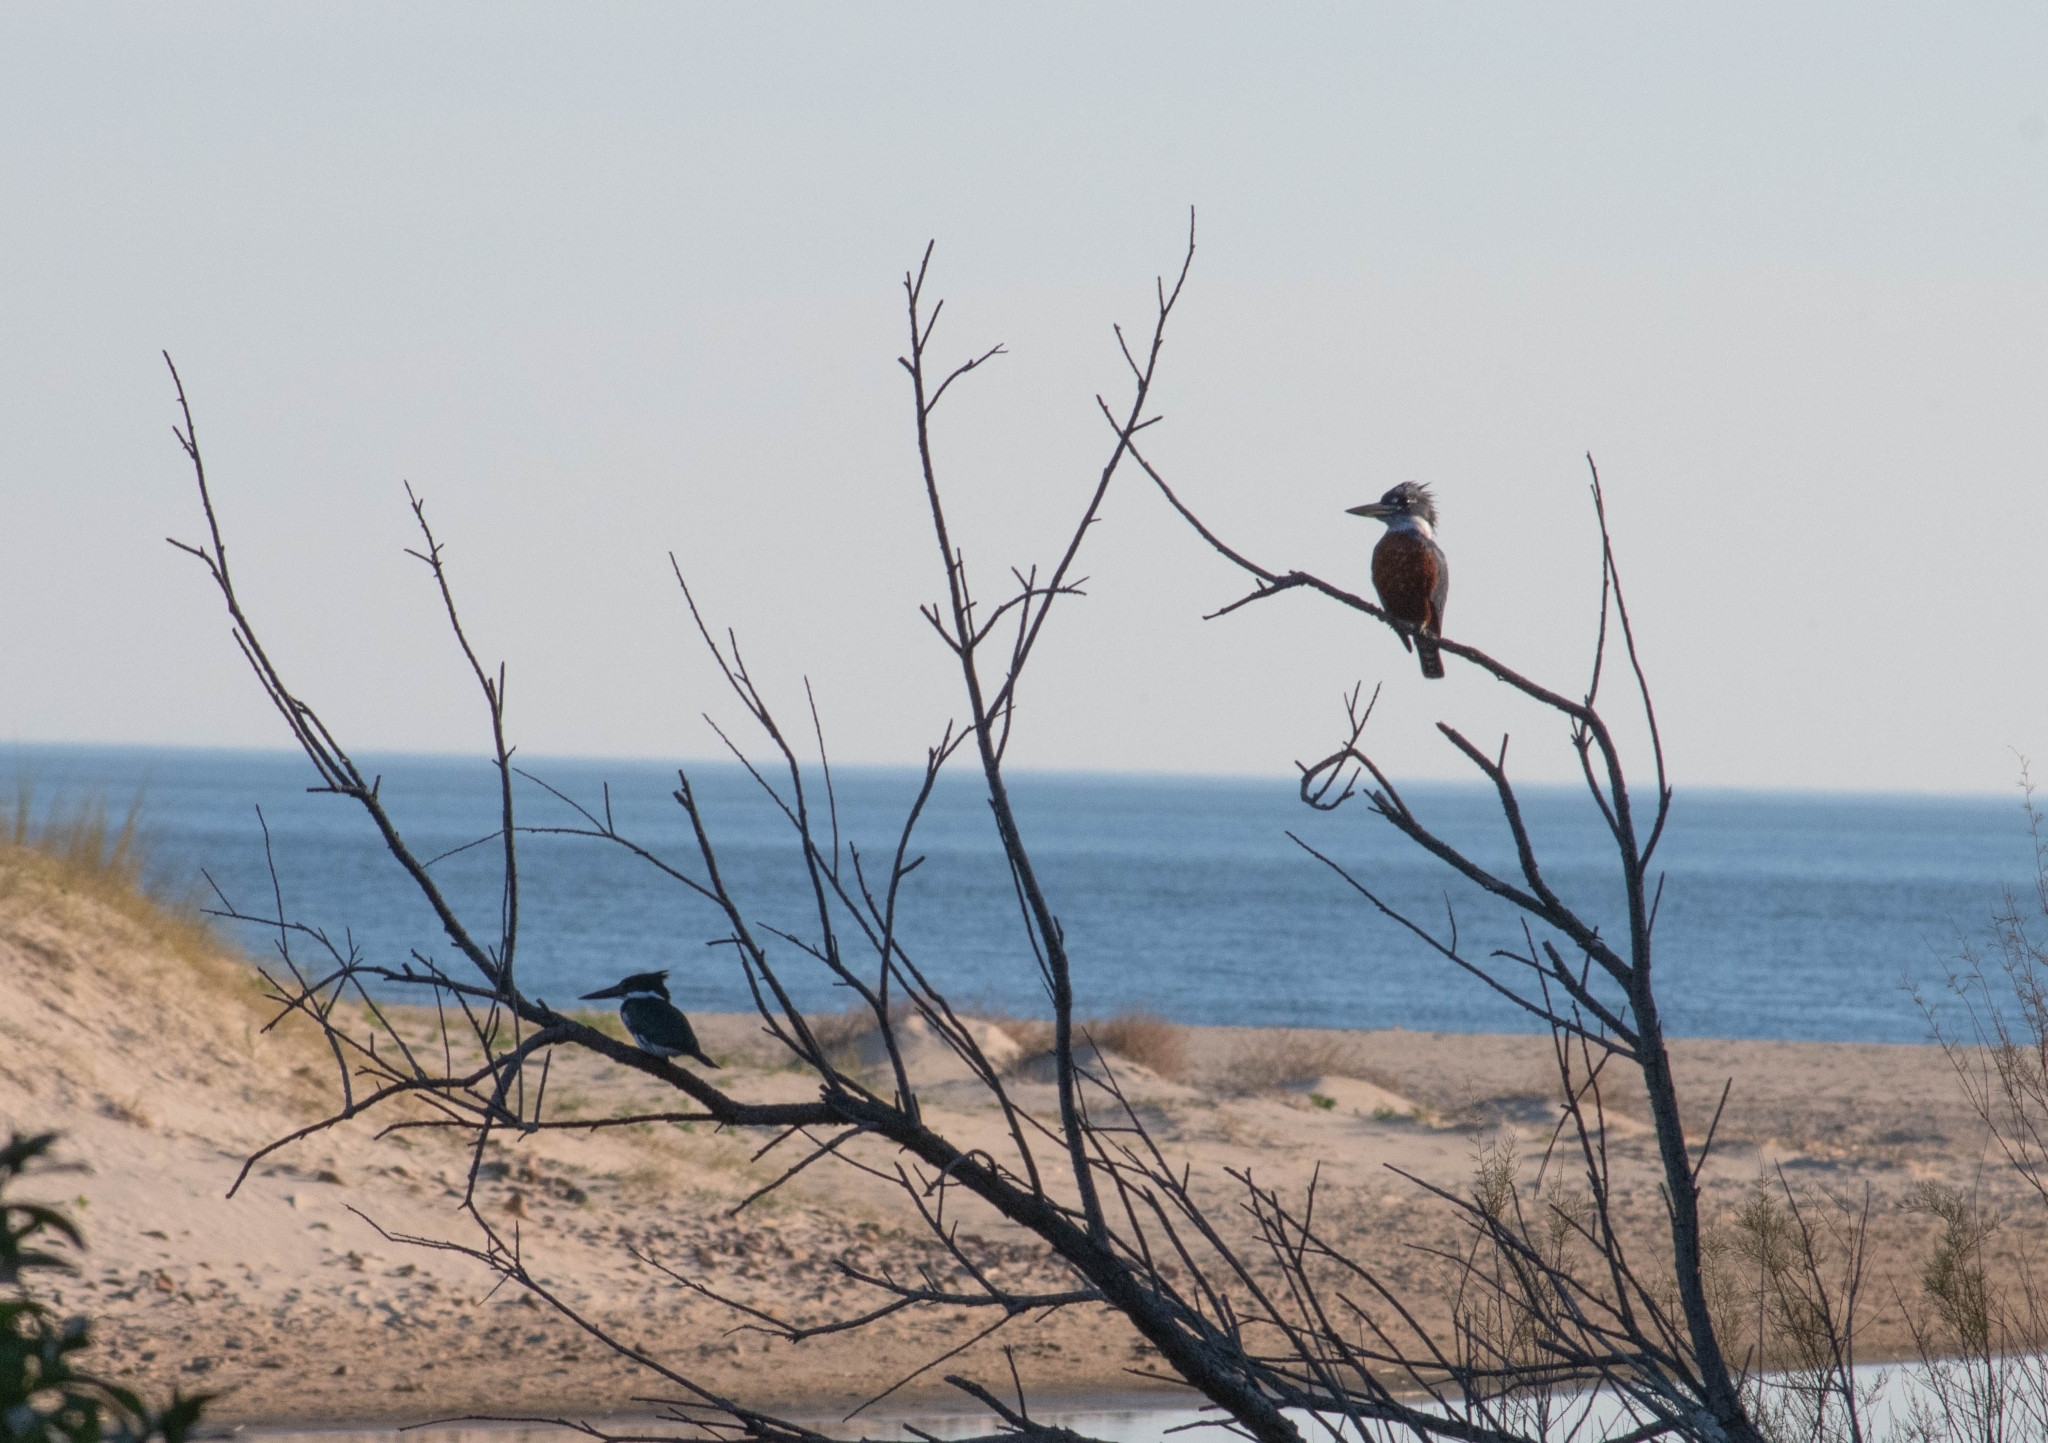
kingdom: Animalia
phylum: Chordata
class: Aves
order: Coraciiformes
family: Alcedinidae
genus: Megaceryle
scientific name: Megaceryle torquata
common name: Ringed kingfisher
